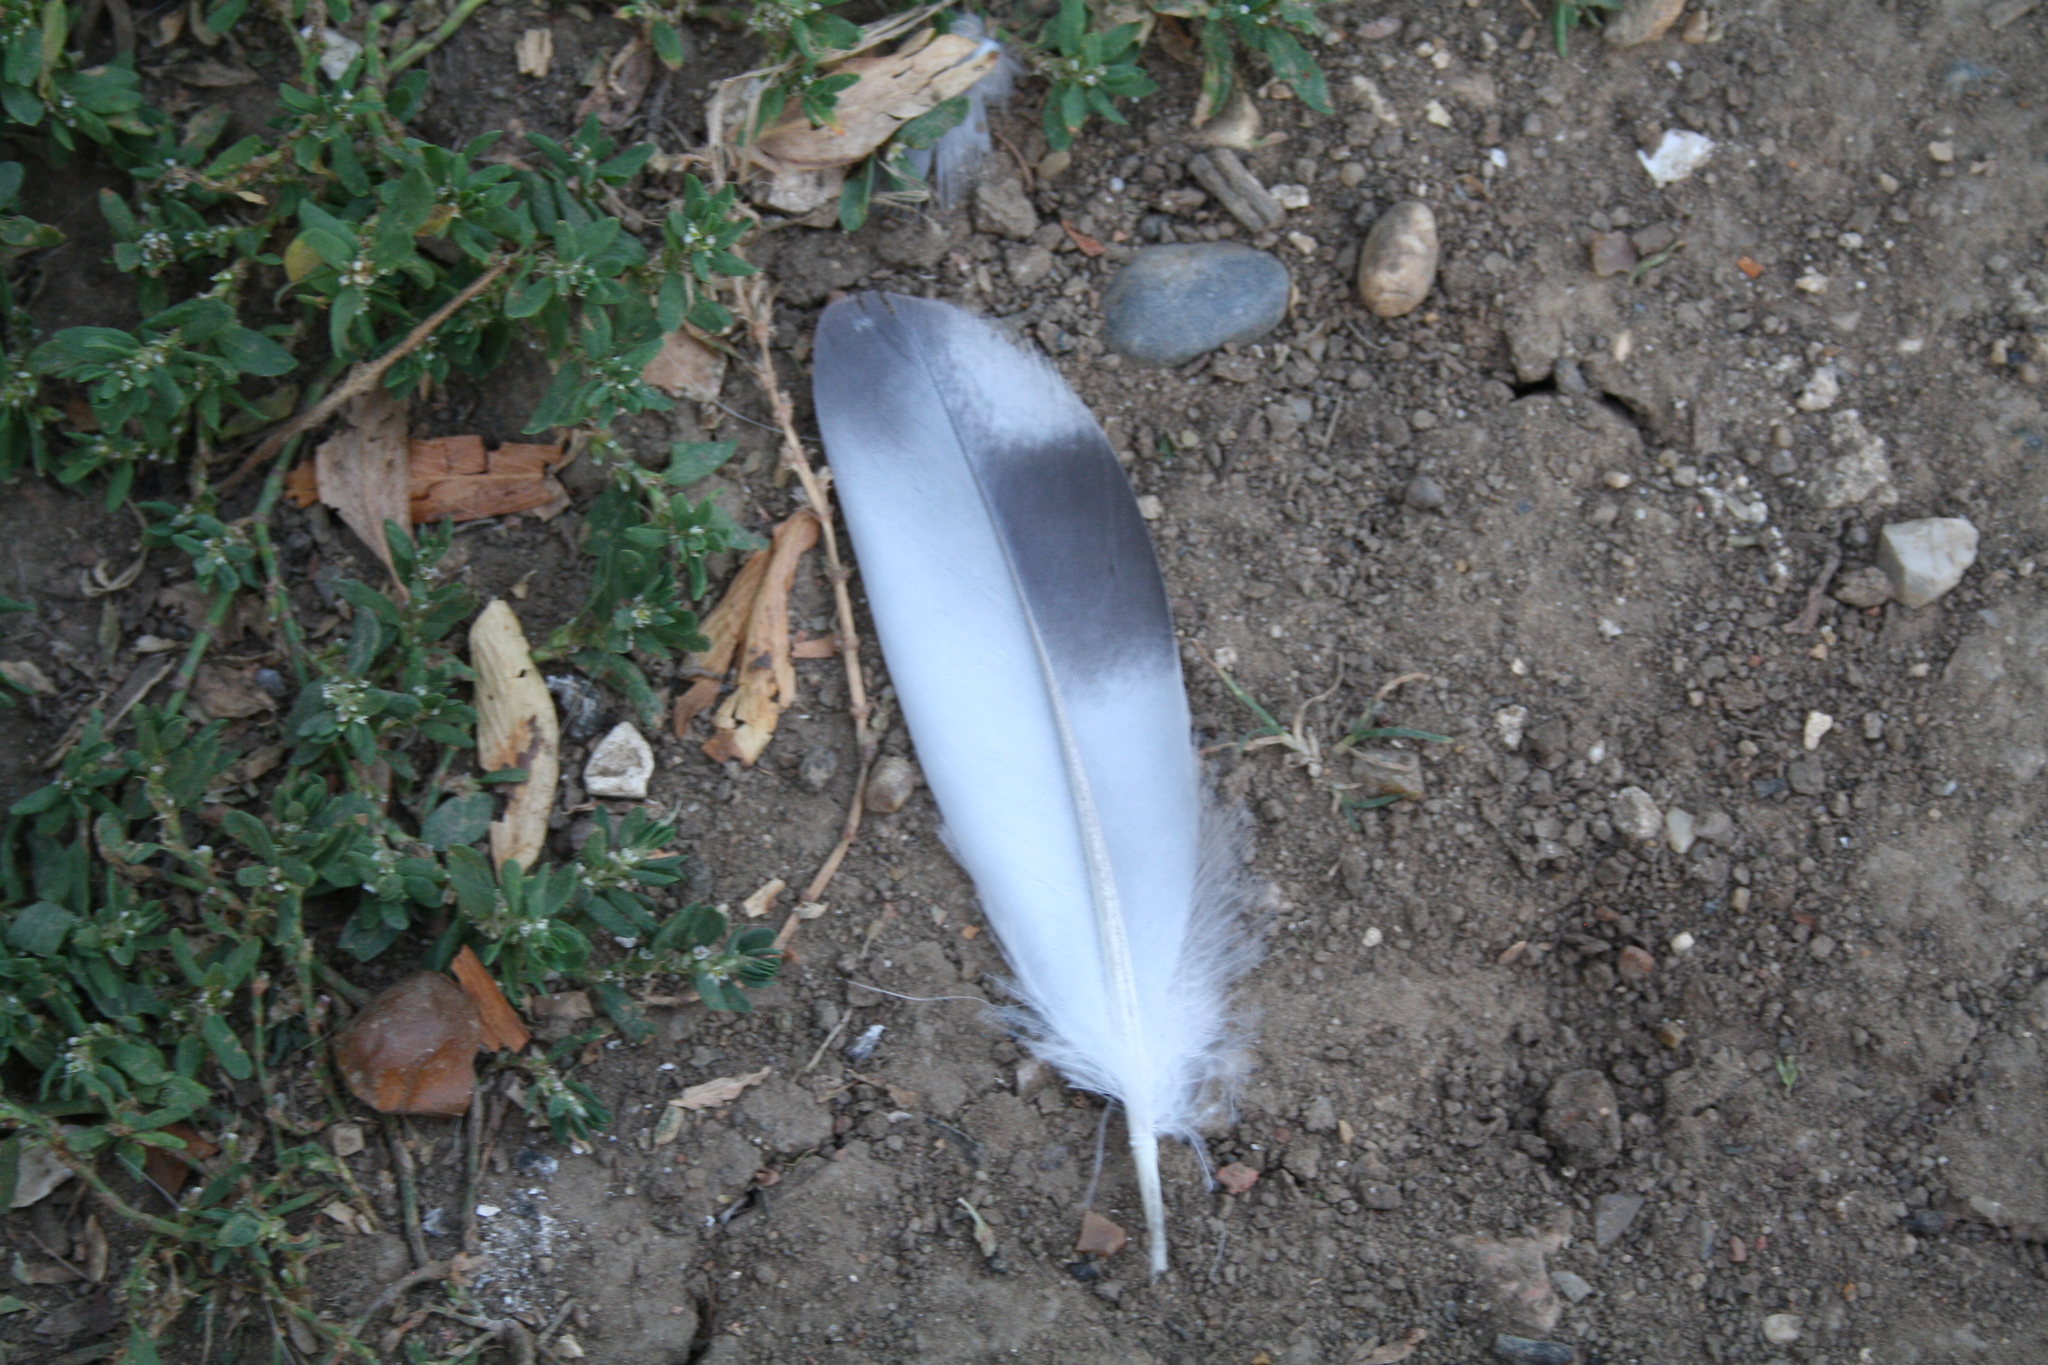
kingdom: Animalia
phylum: Chordata
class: Aves
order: Columbiformes
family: Columbidae
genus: Columba
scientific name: Columba livia
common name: Rock pigeon
